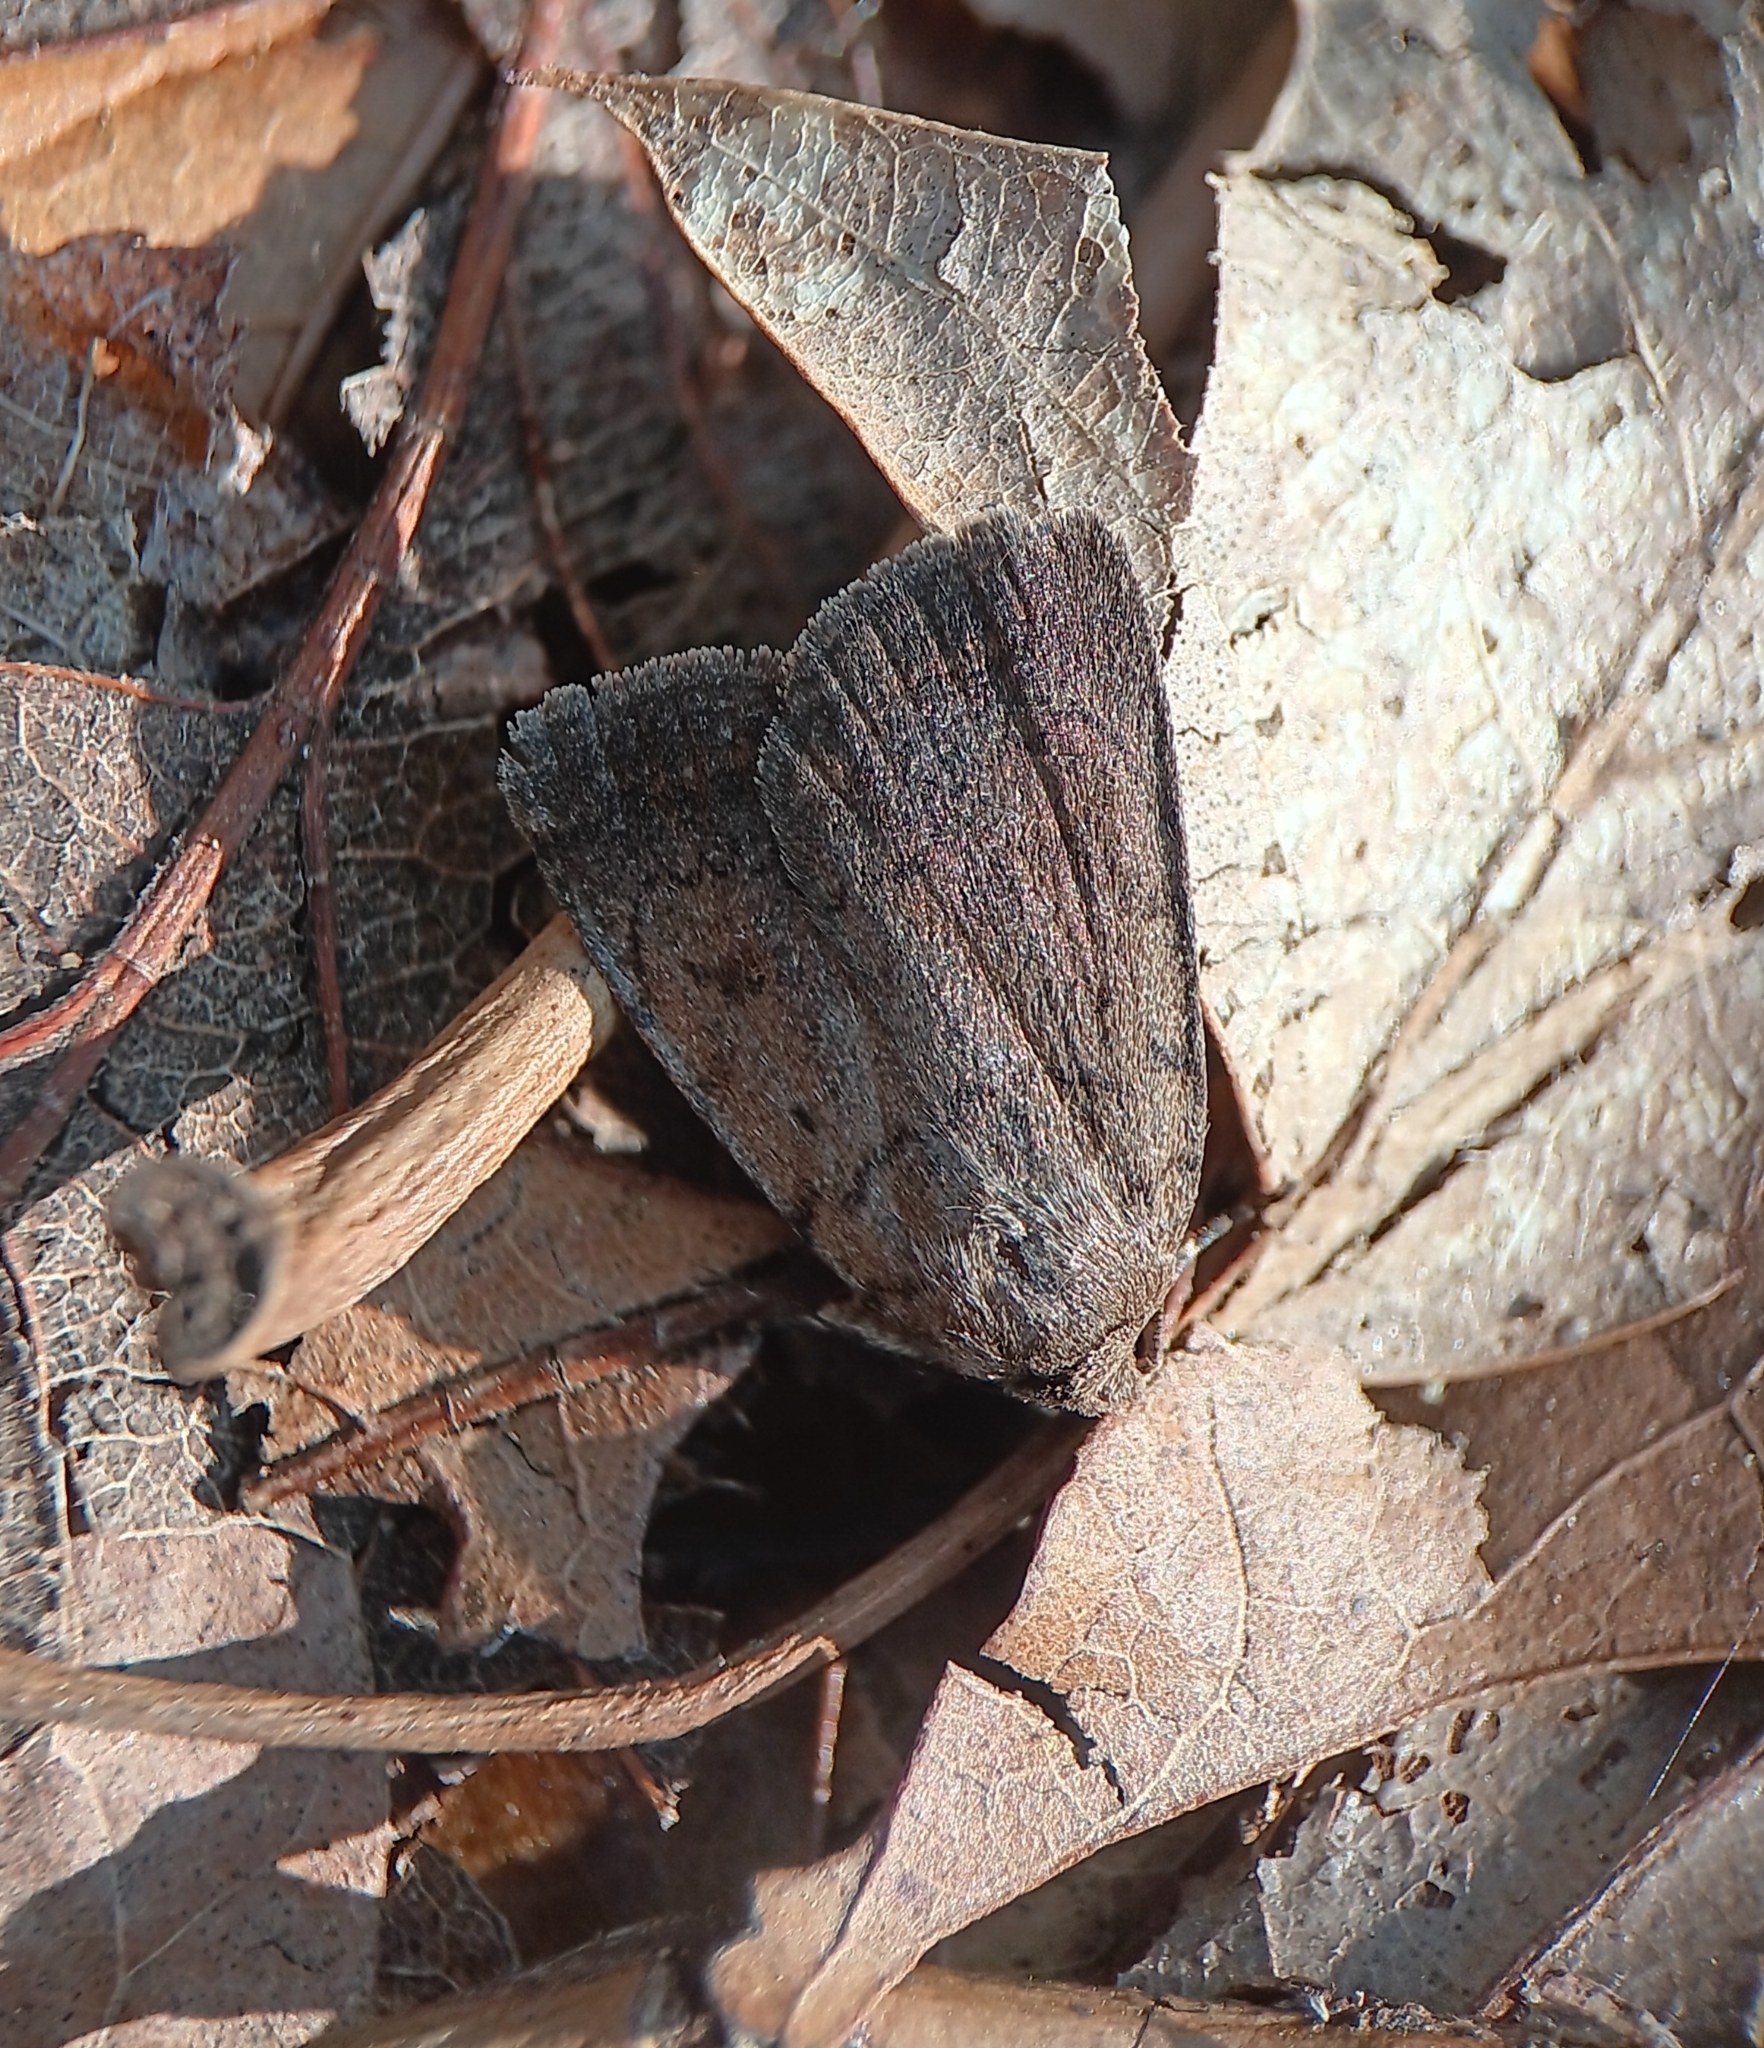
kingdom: Animalia
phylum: Arthropoda
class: Insecta
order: Lepidoptera
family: Noctuidae
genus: Athetis
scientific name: Athetis tarda
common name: Slowpoke moth
